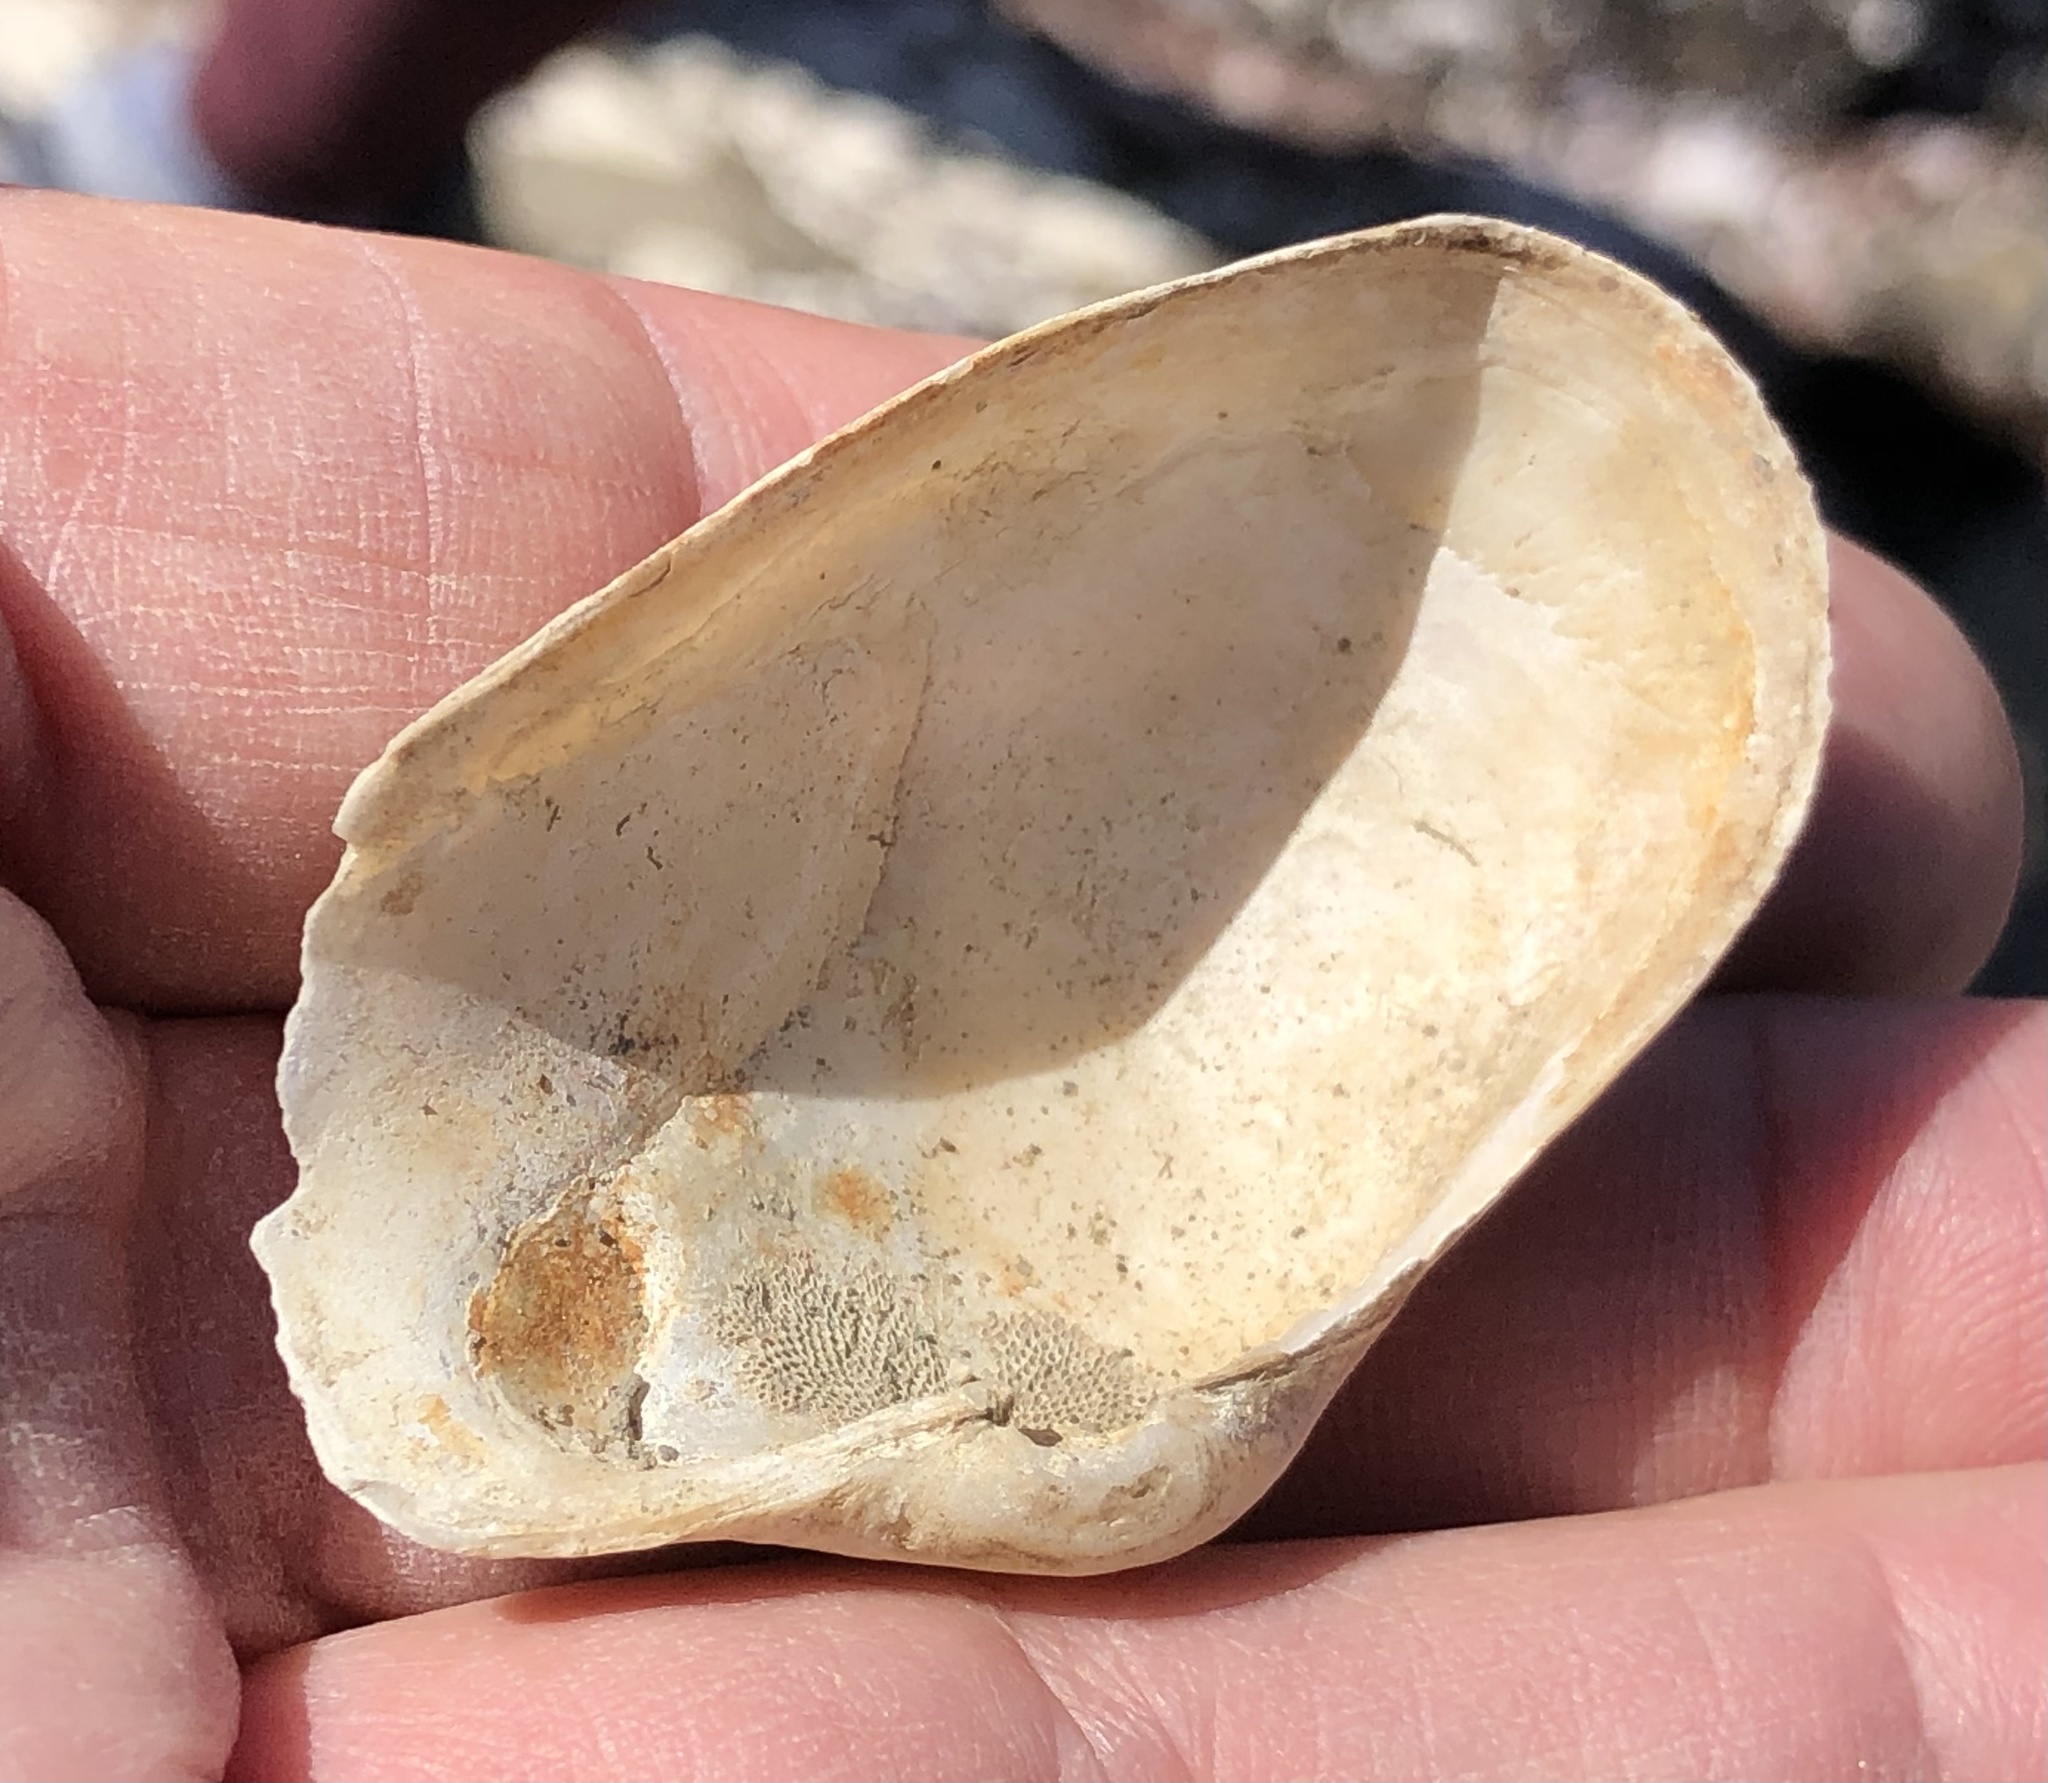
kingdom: Animalia
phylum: Mollusca
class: Bivalvia
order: Myida
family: Myidae
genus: Platyodon
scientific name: Platyodon cancellatus
